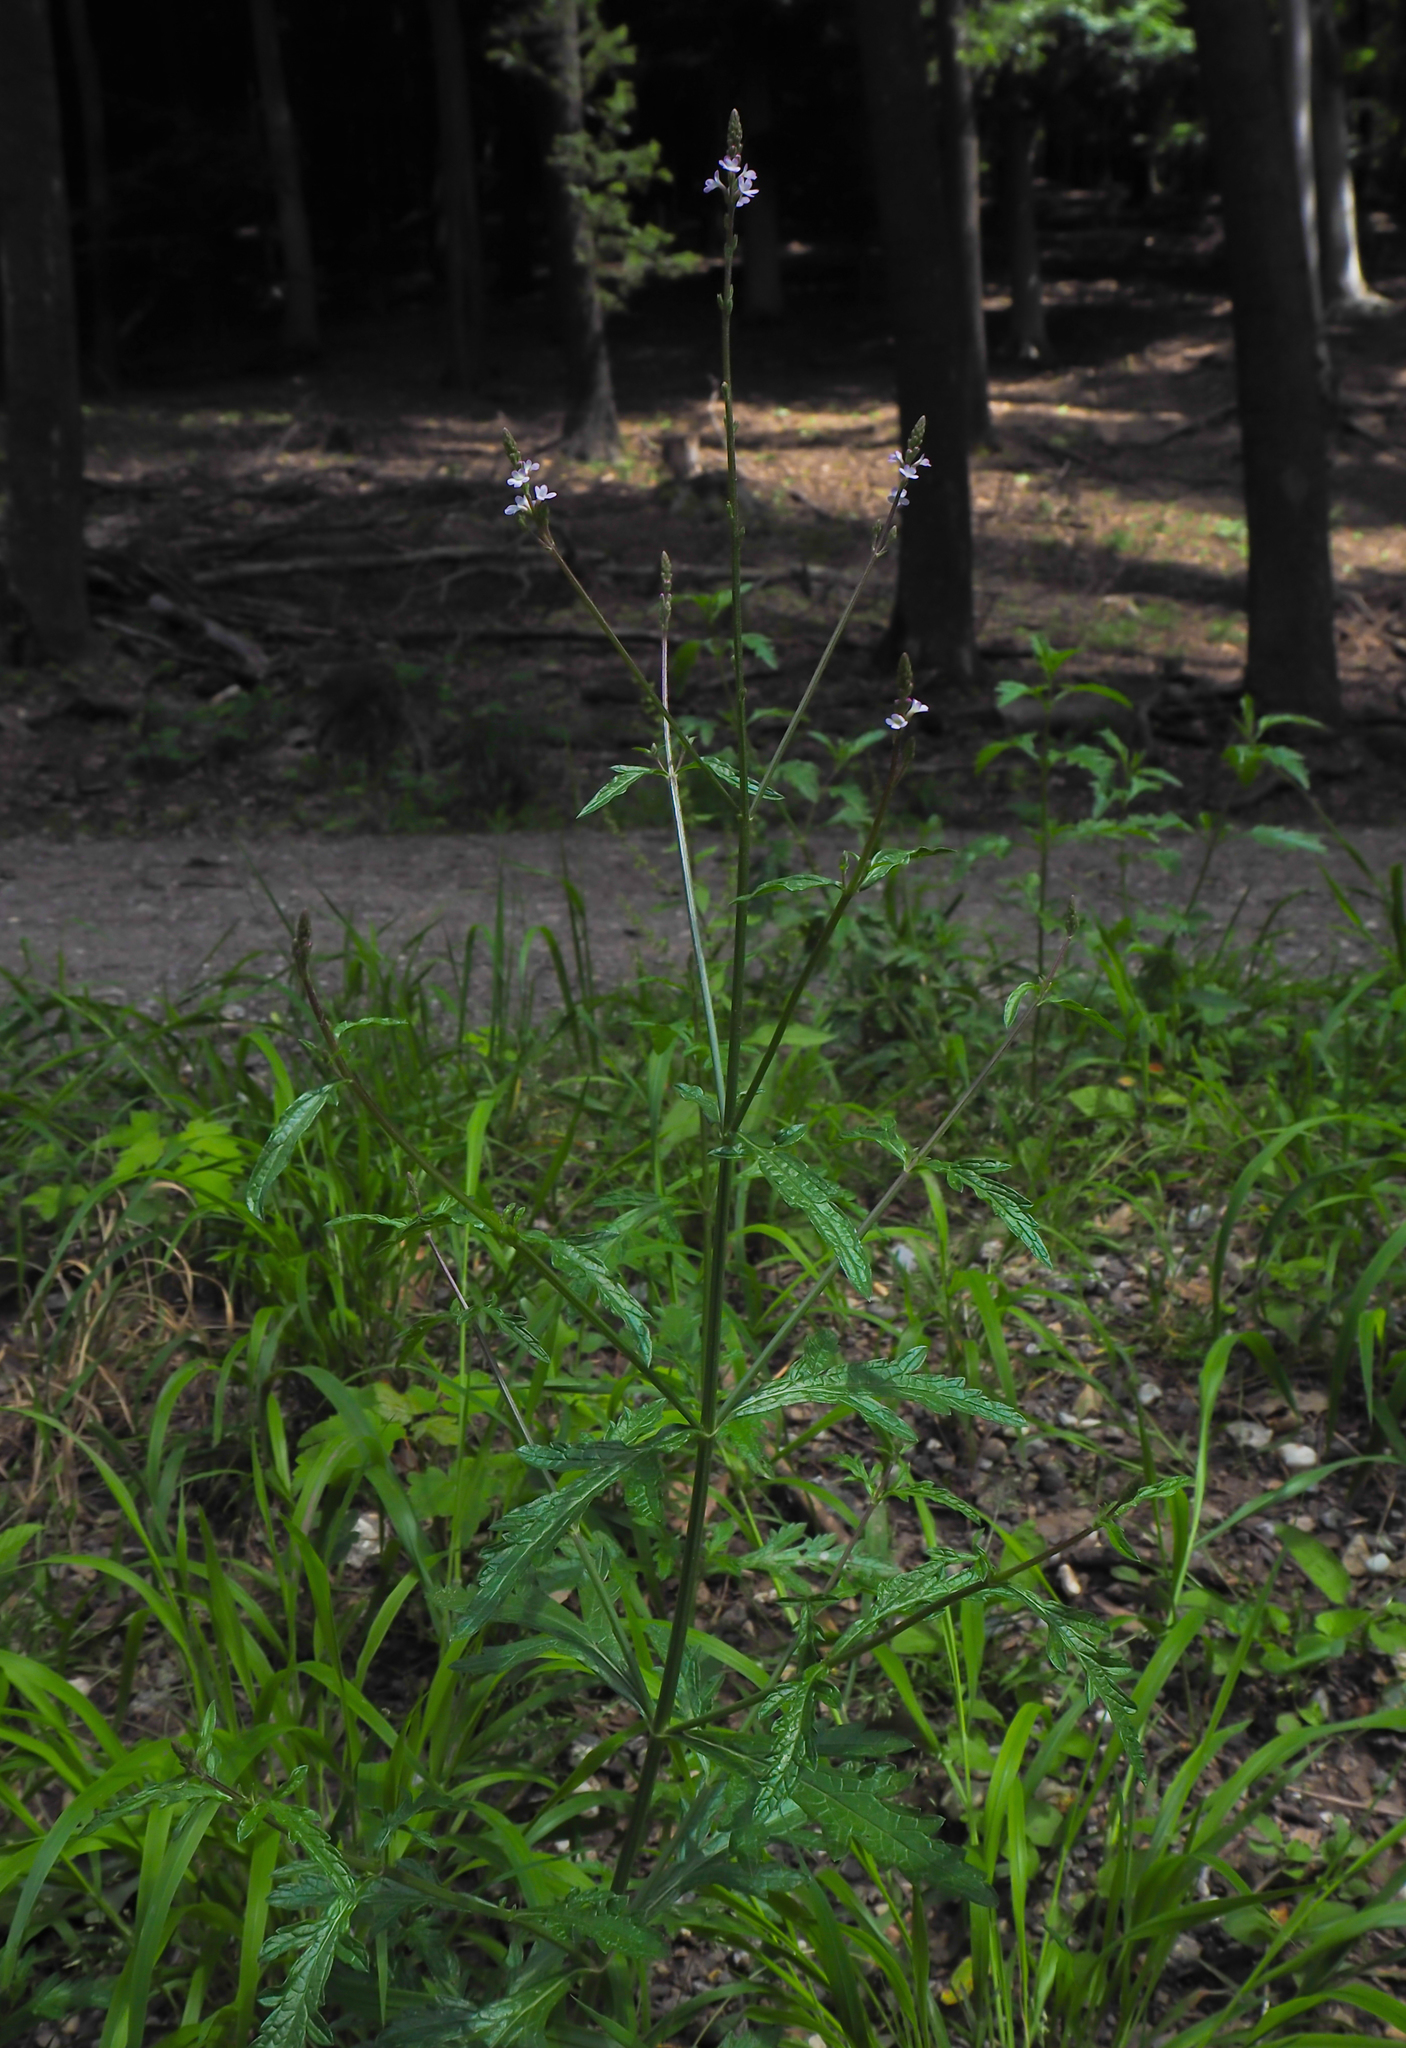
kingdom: Plantae
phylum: Tracheophyta
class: Magnoliopsida
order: Lamiales
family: Verbenaceae
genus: Verbena
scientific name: Verbena officinalis
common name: Vervain
